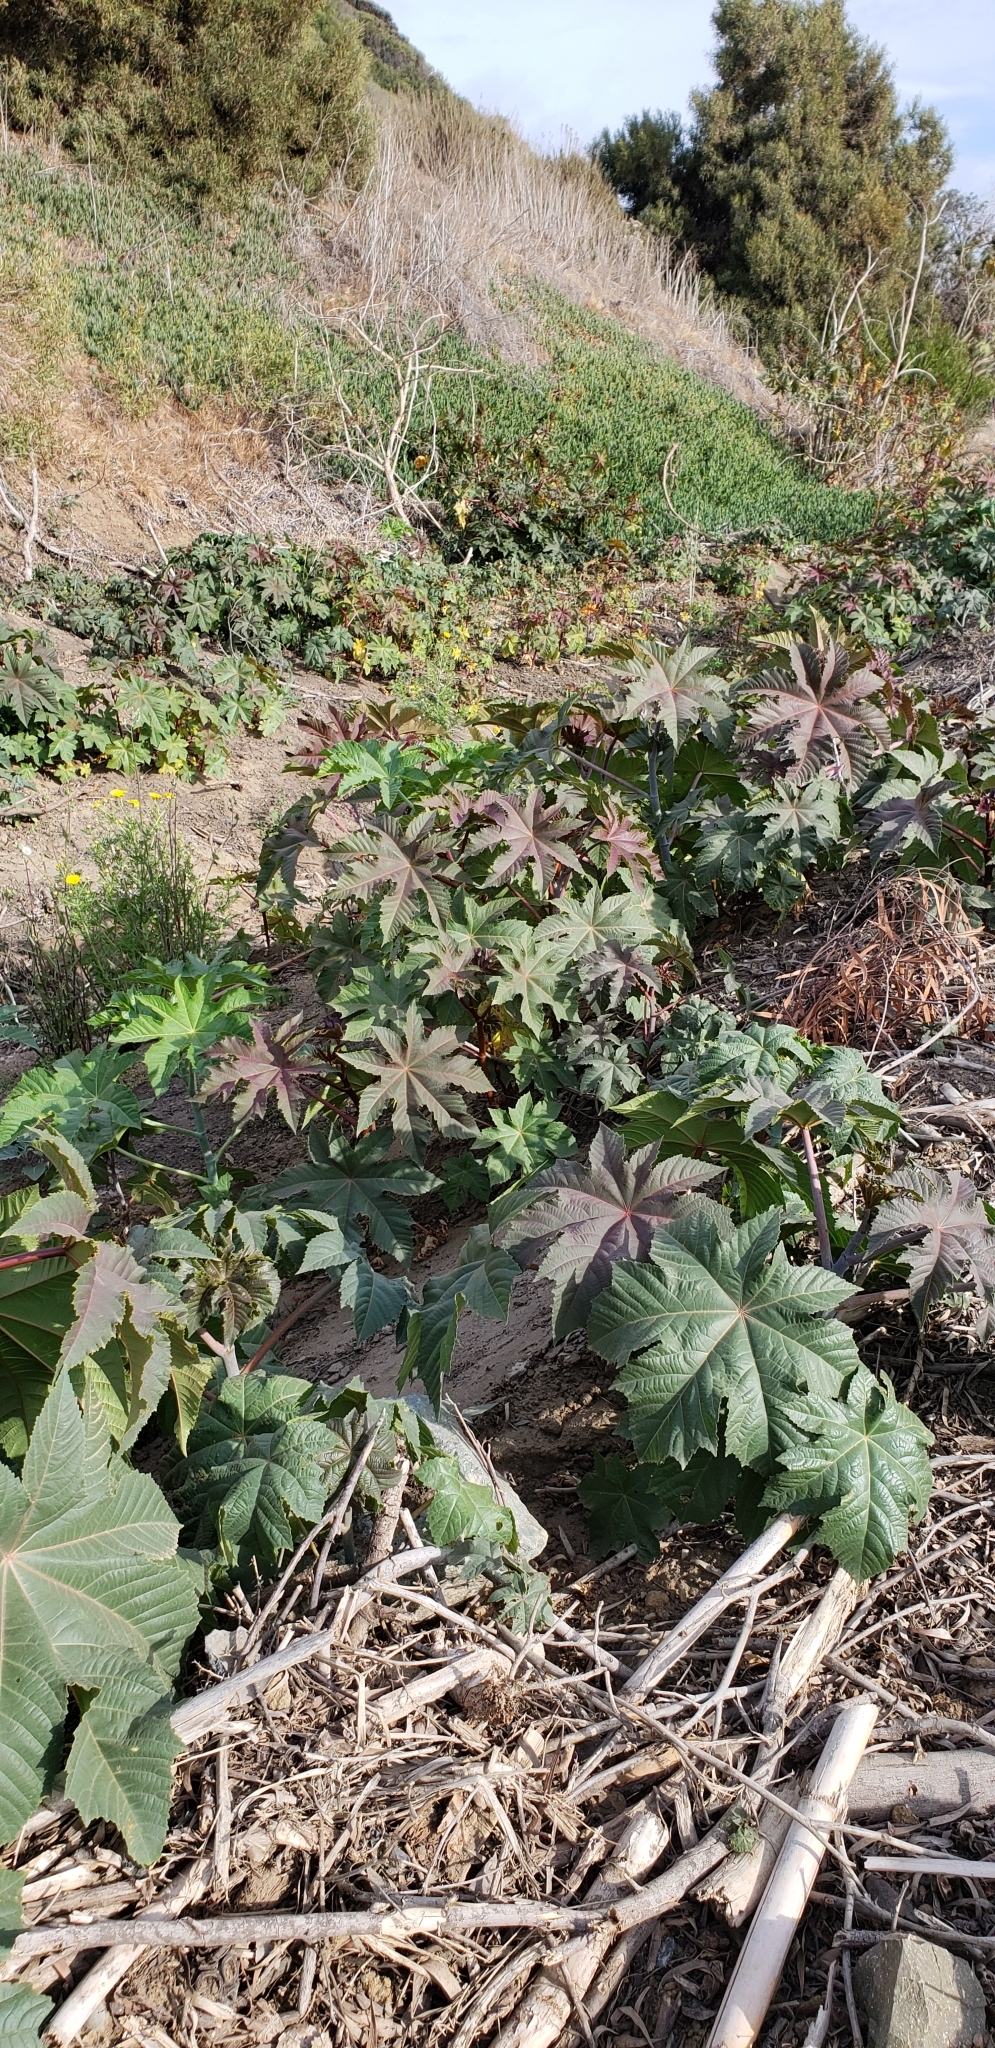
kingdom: Plantae
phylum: Tracheophyta
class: Magnoliopsida
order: Malpighiales
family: Euphorbiaceae
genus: Ricinus
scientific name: Ricinus communis
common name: Castor-oil-plant
